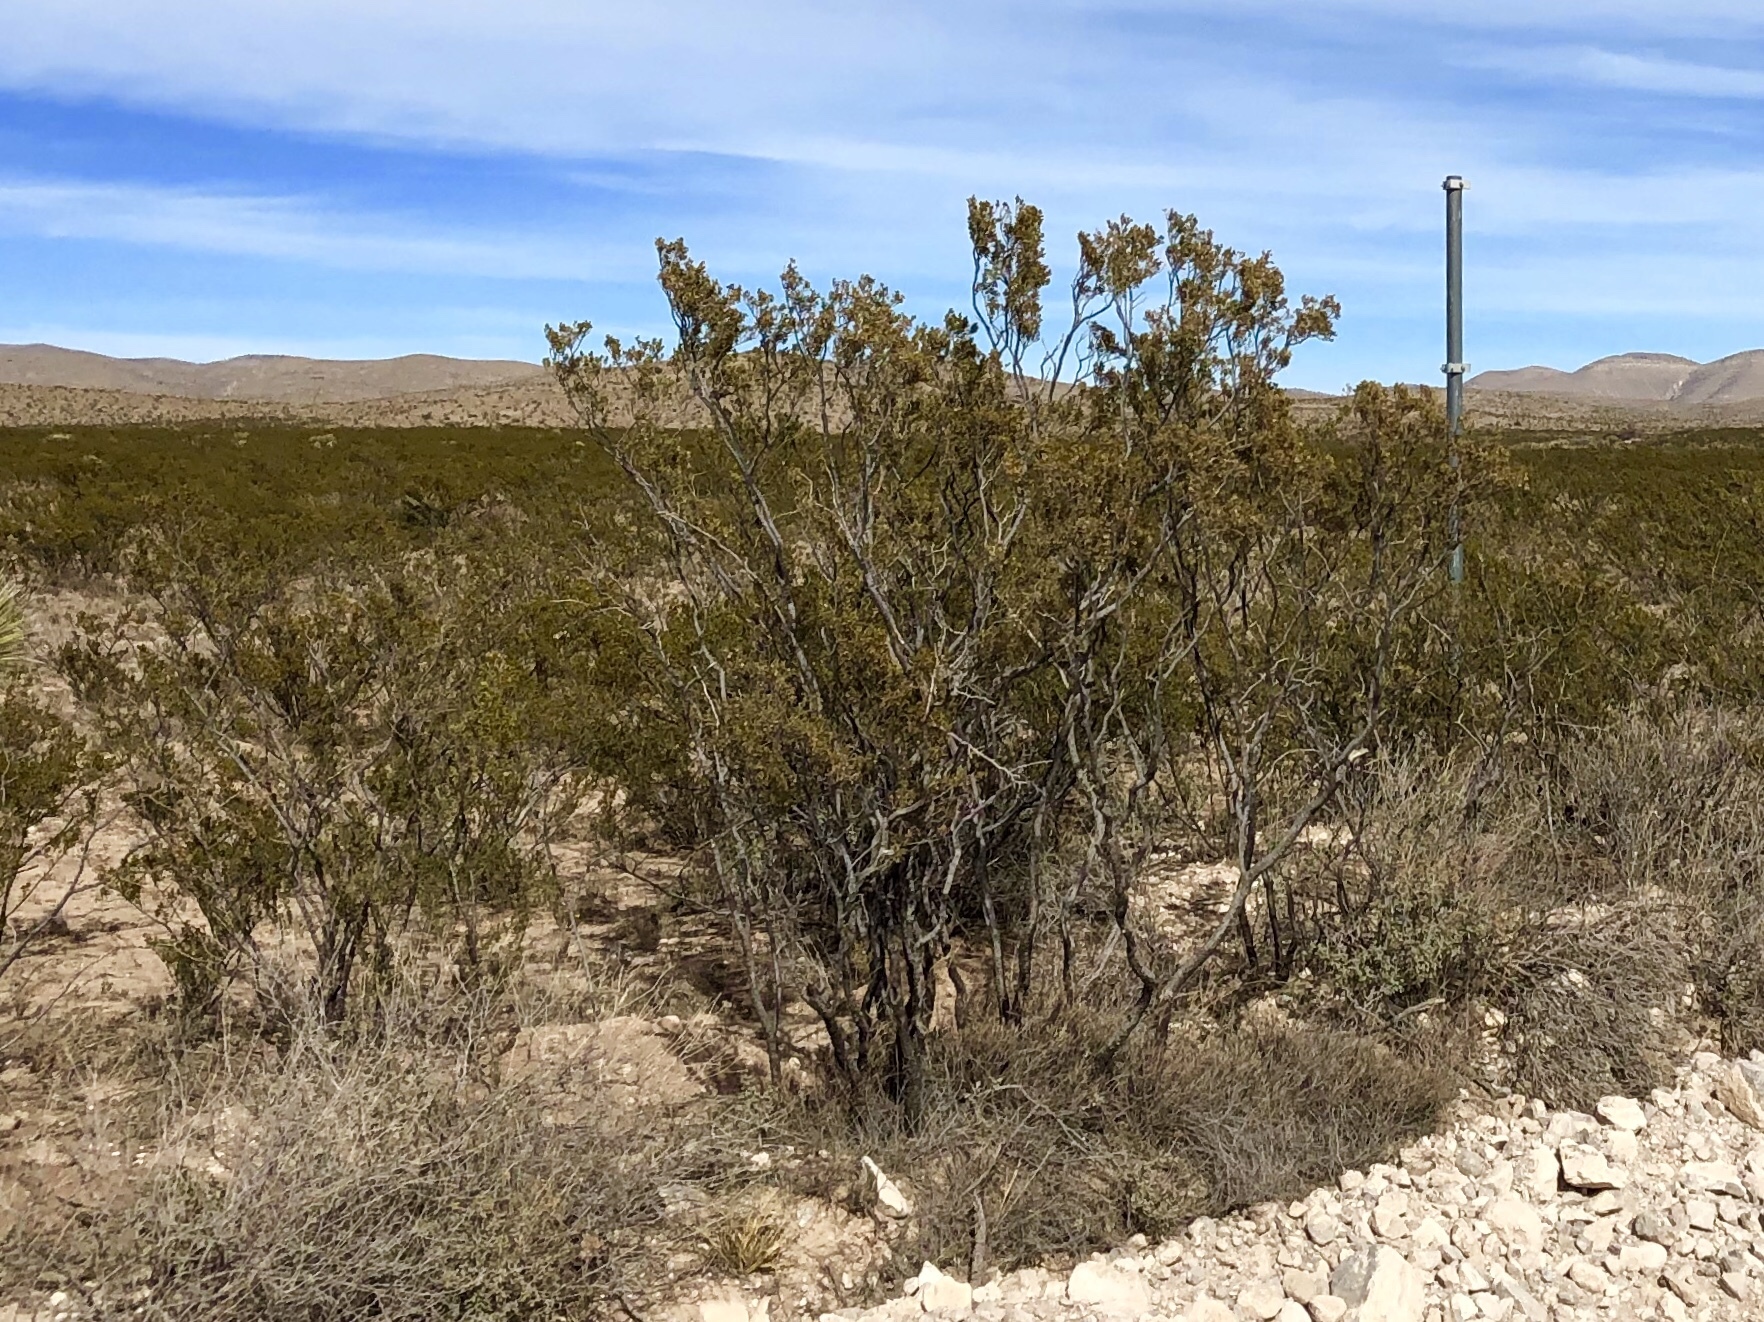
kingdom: Plantae
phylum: Tracheophyta
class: Magnoliopsida
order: Zygophyllales
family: Zygophyllaceae
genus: Larrea
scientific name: Larrea tridentata
